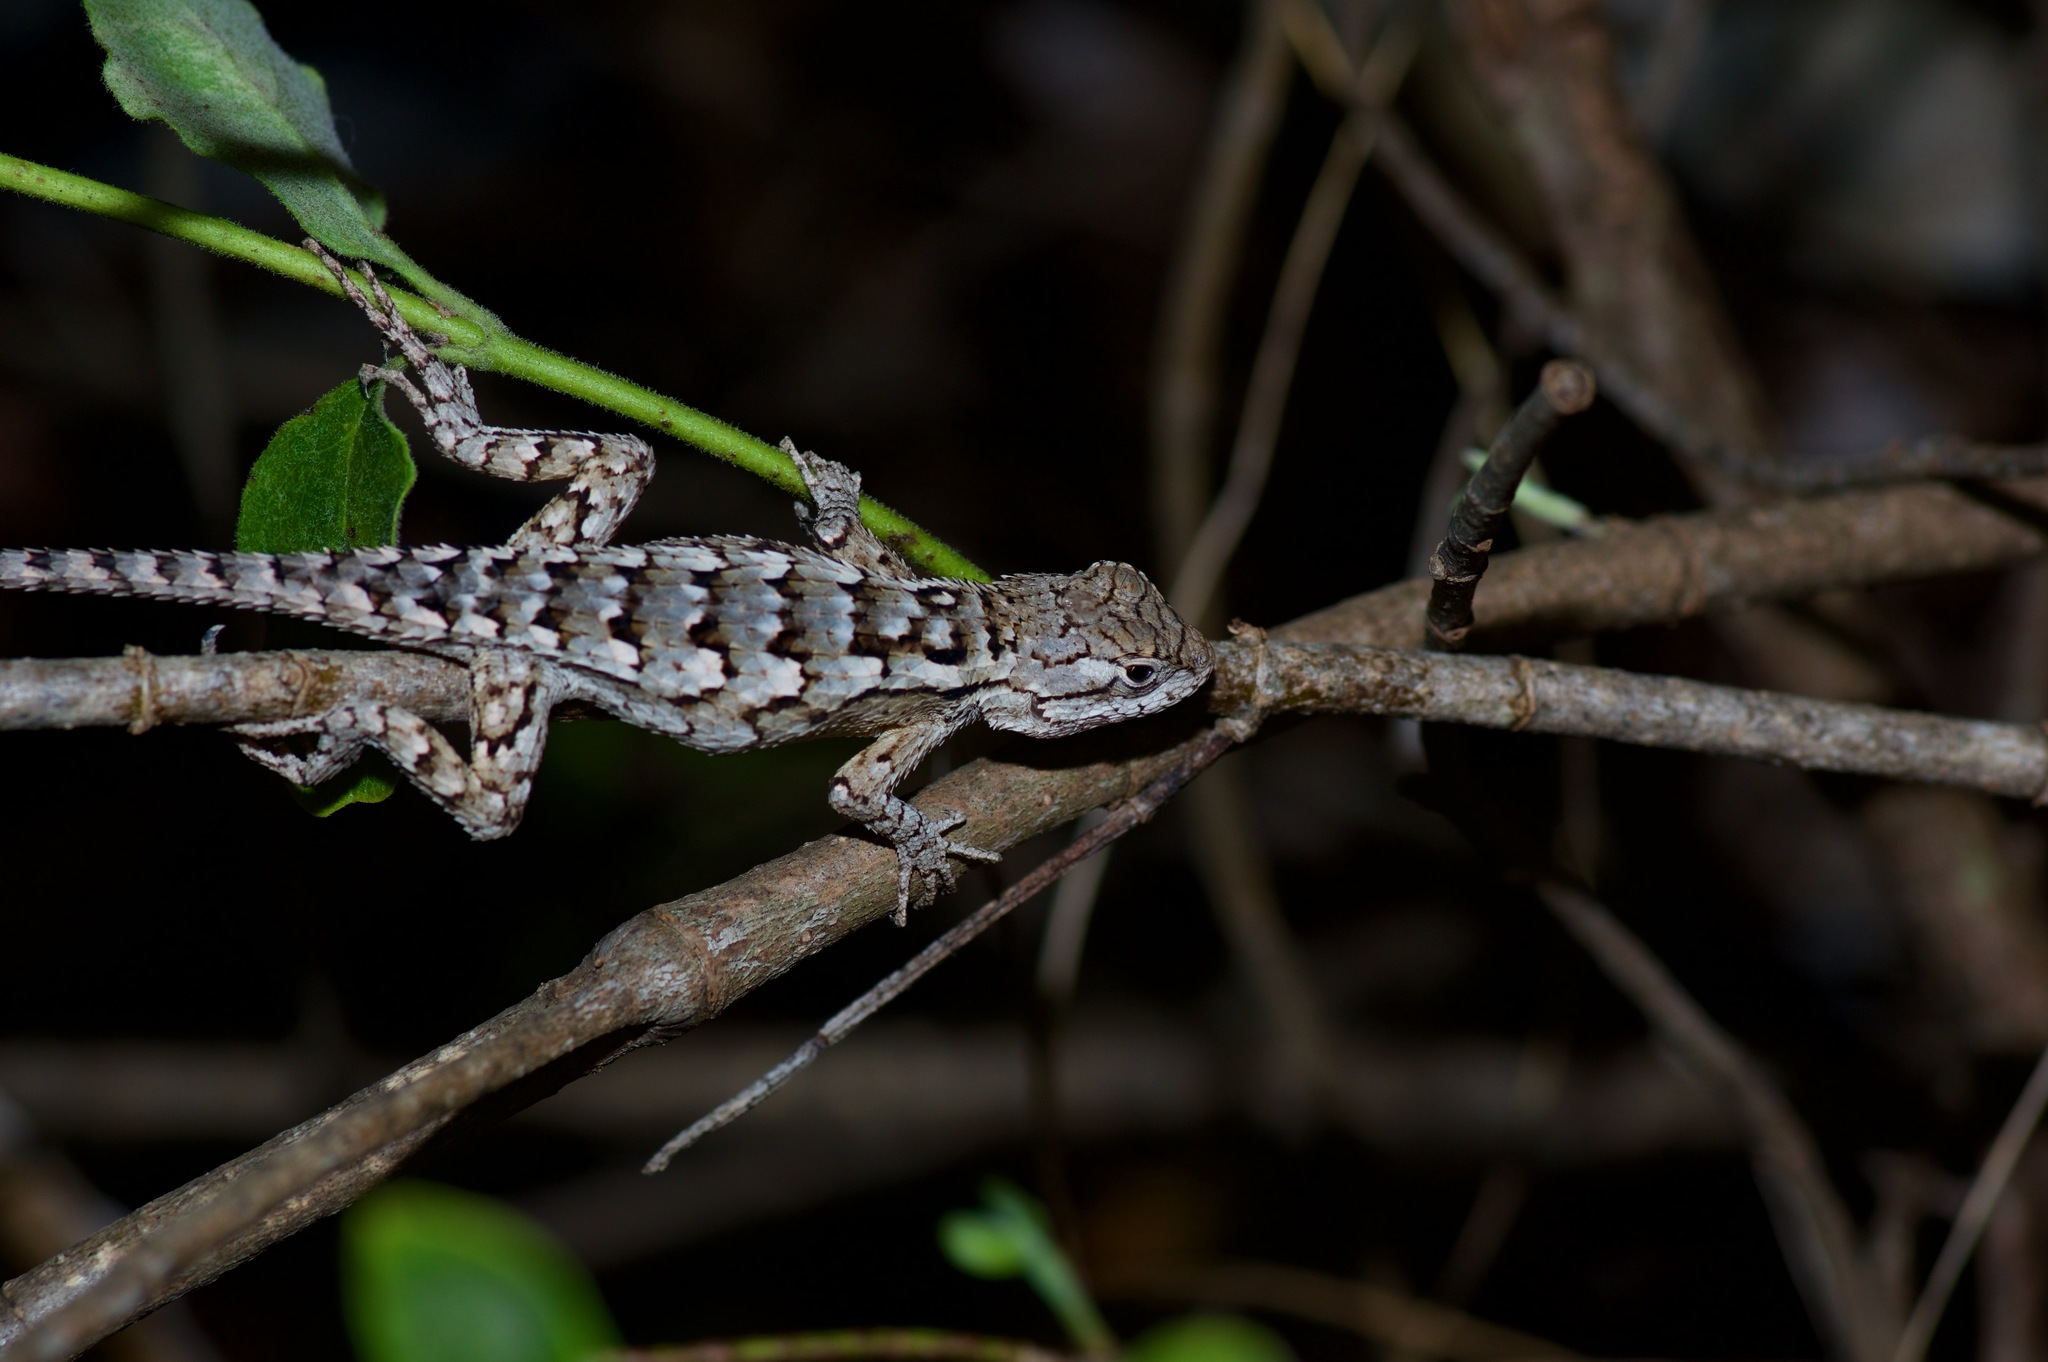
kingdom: Animalia
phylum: Chordata
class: Squamata
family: Phrynosomatidae
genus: Sceloporus
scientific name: Sceloporus olivaceus
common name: Texas spiny lizard
